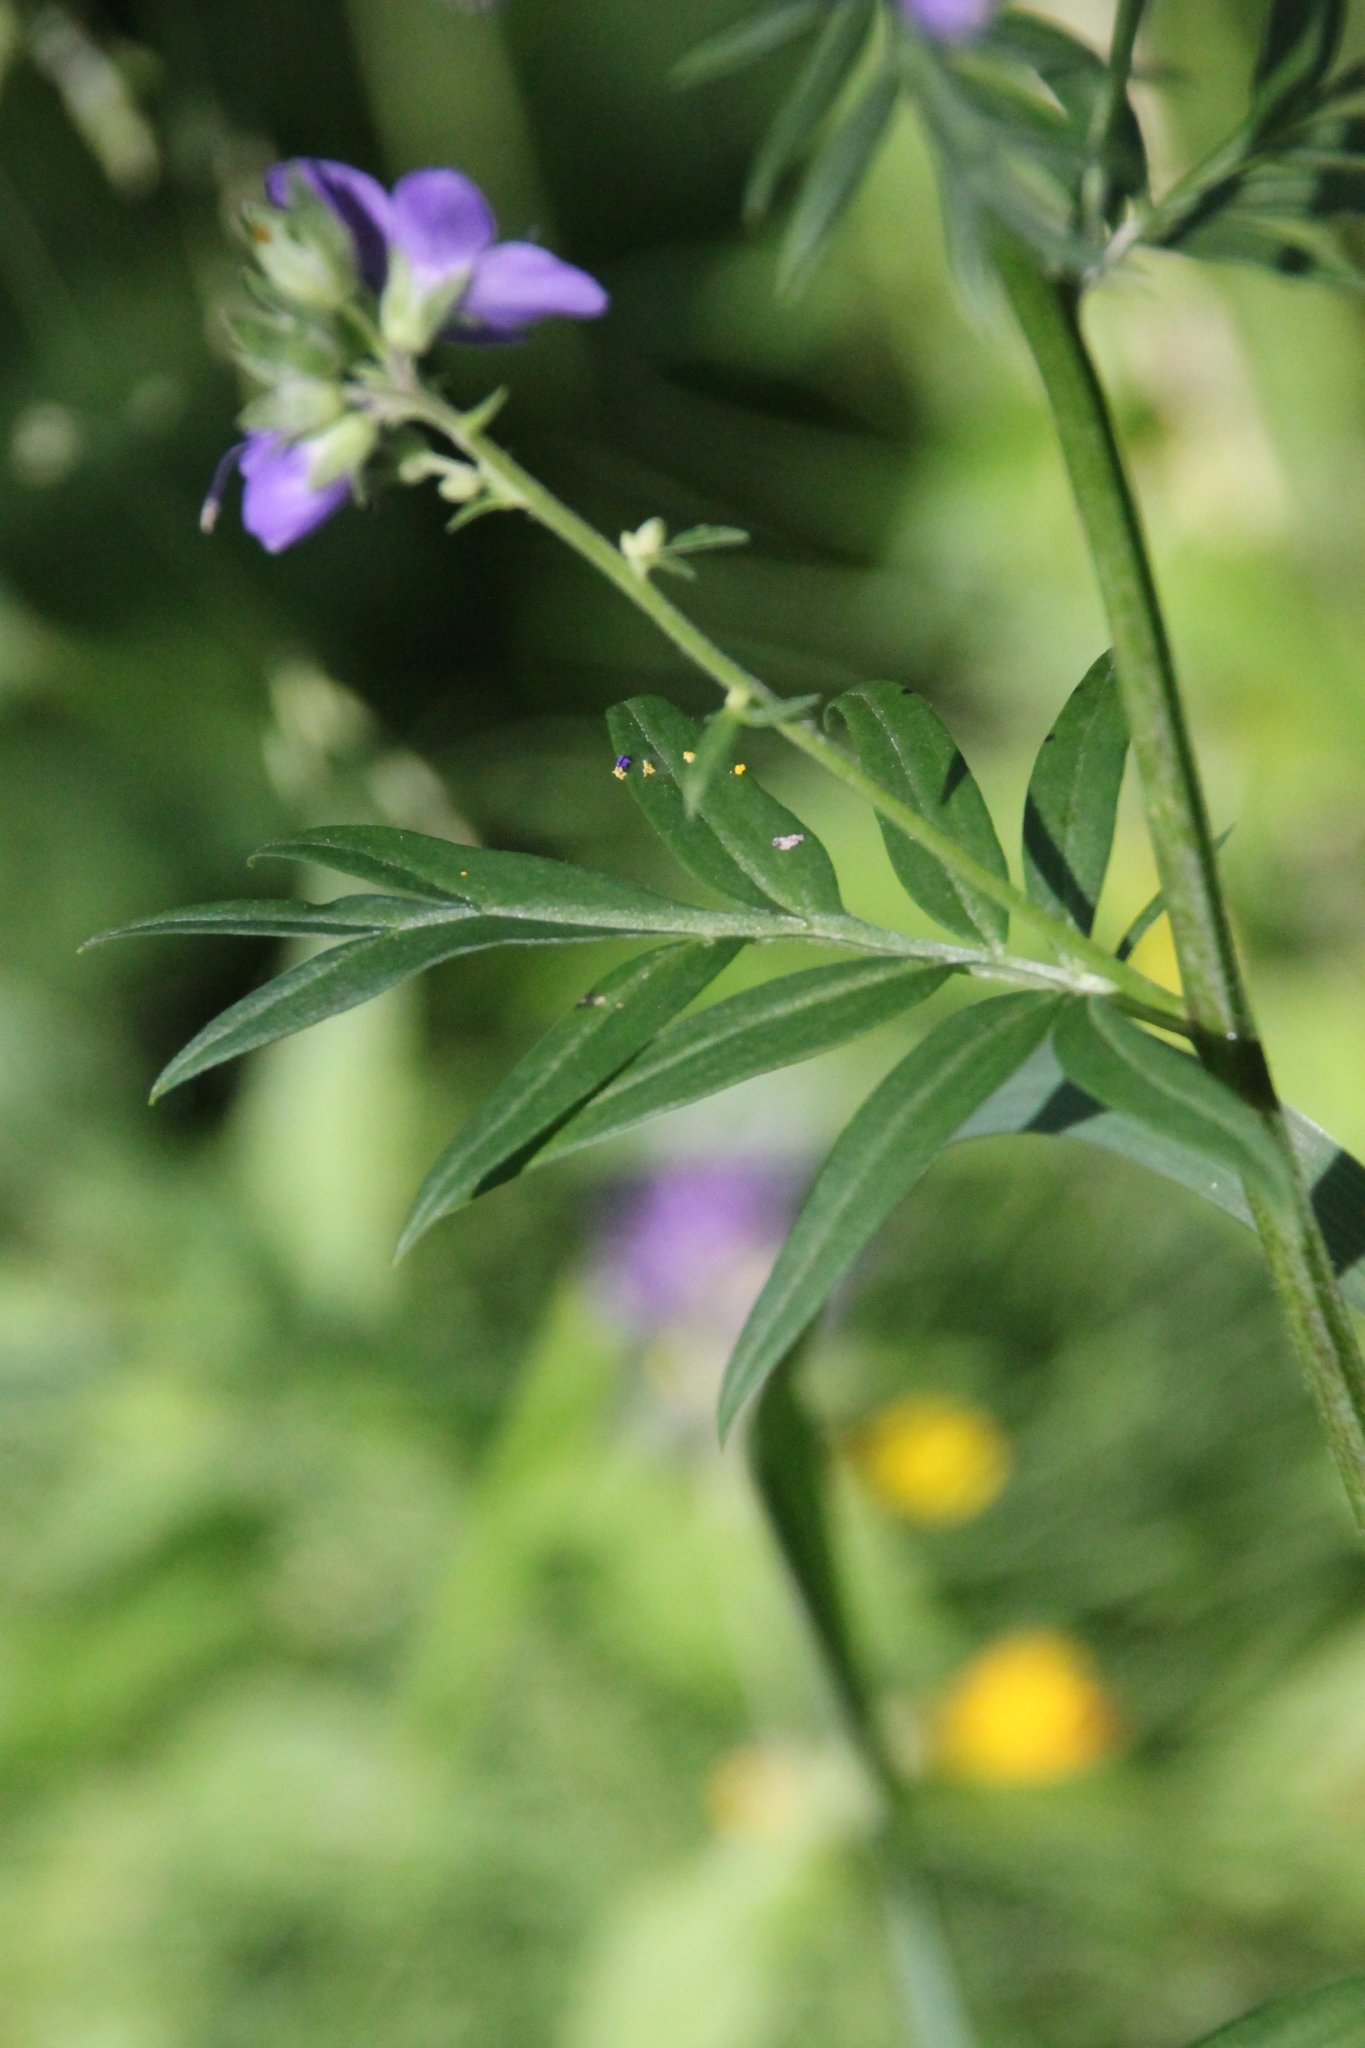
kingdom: Plantae
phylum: Tracheophyta
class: Magnoliopsida
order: Ericales
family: Polemoniaceae
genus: Polemonium
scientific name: Polemonium caeruleum
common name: Jacob's-ladder
